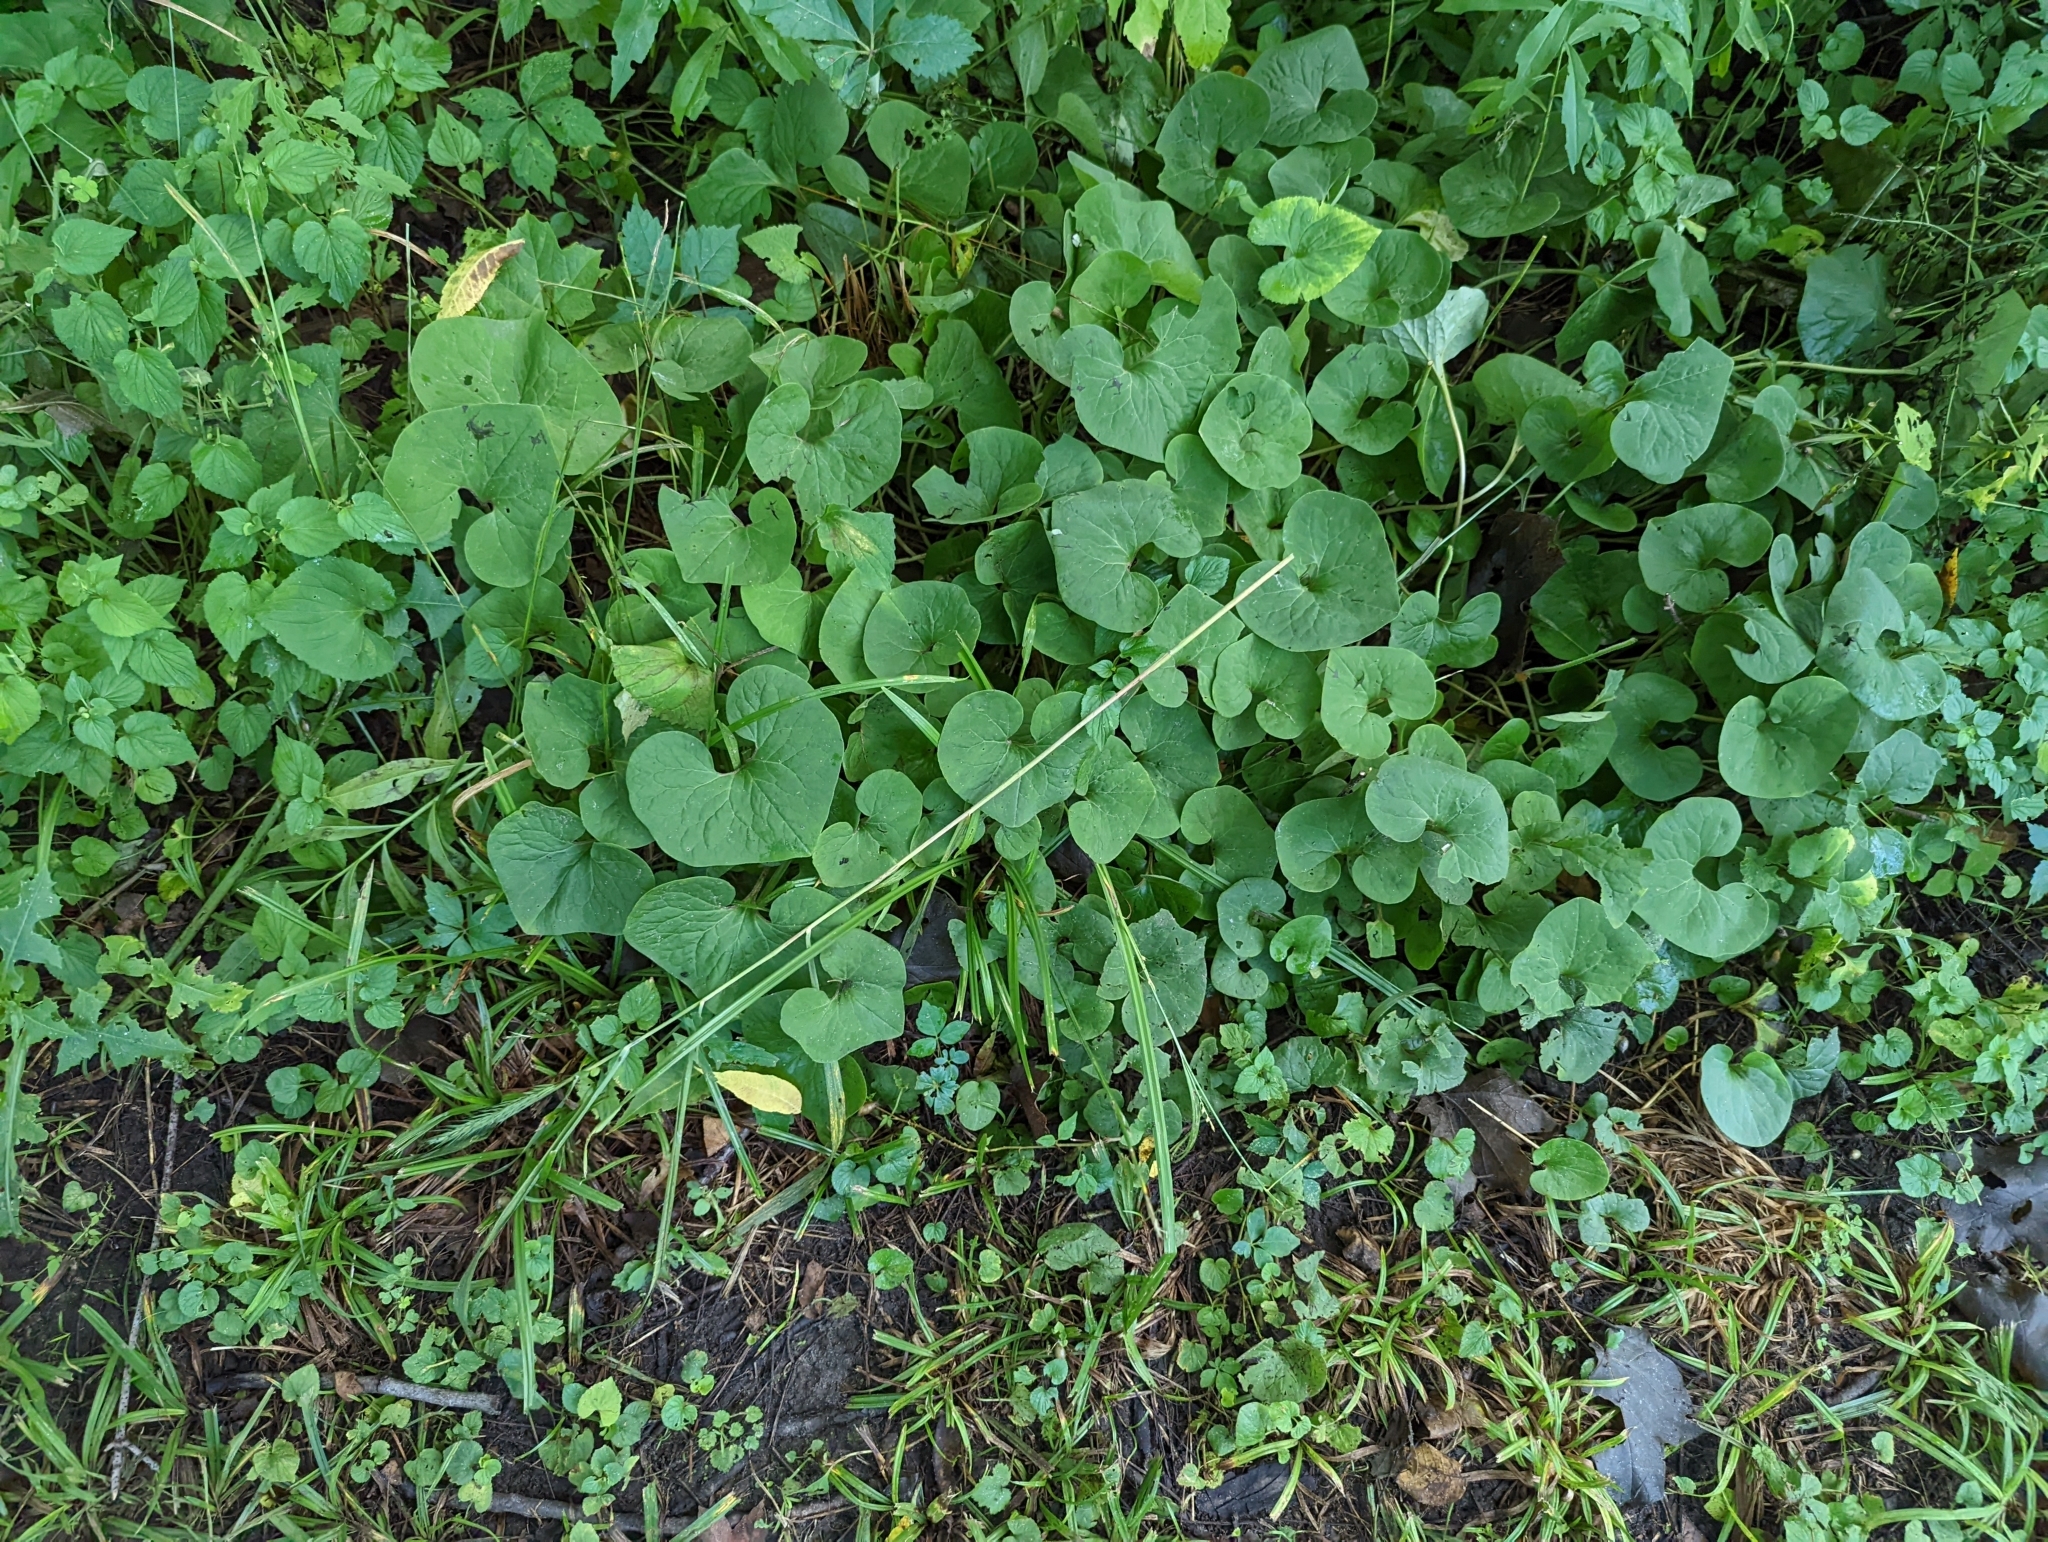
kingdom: Plantae
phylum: Tracheophyta
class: Magnoliopsida
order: Piperales
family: Aristolochiaceae
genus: Asarum
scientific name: Asarum canadense
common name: Wild ginger
